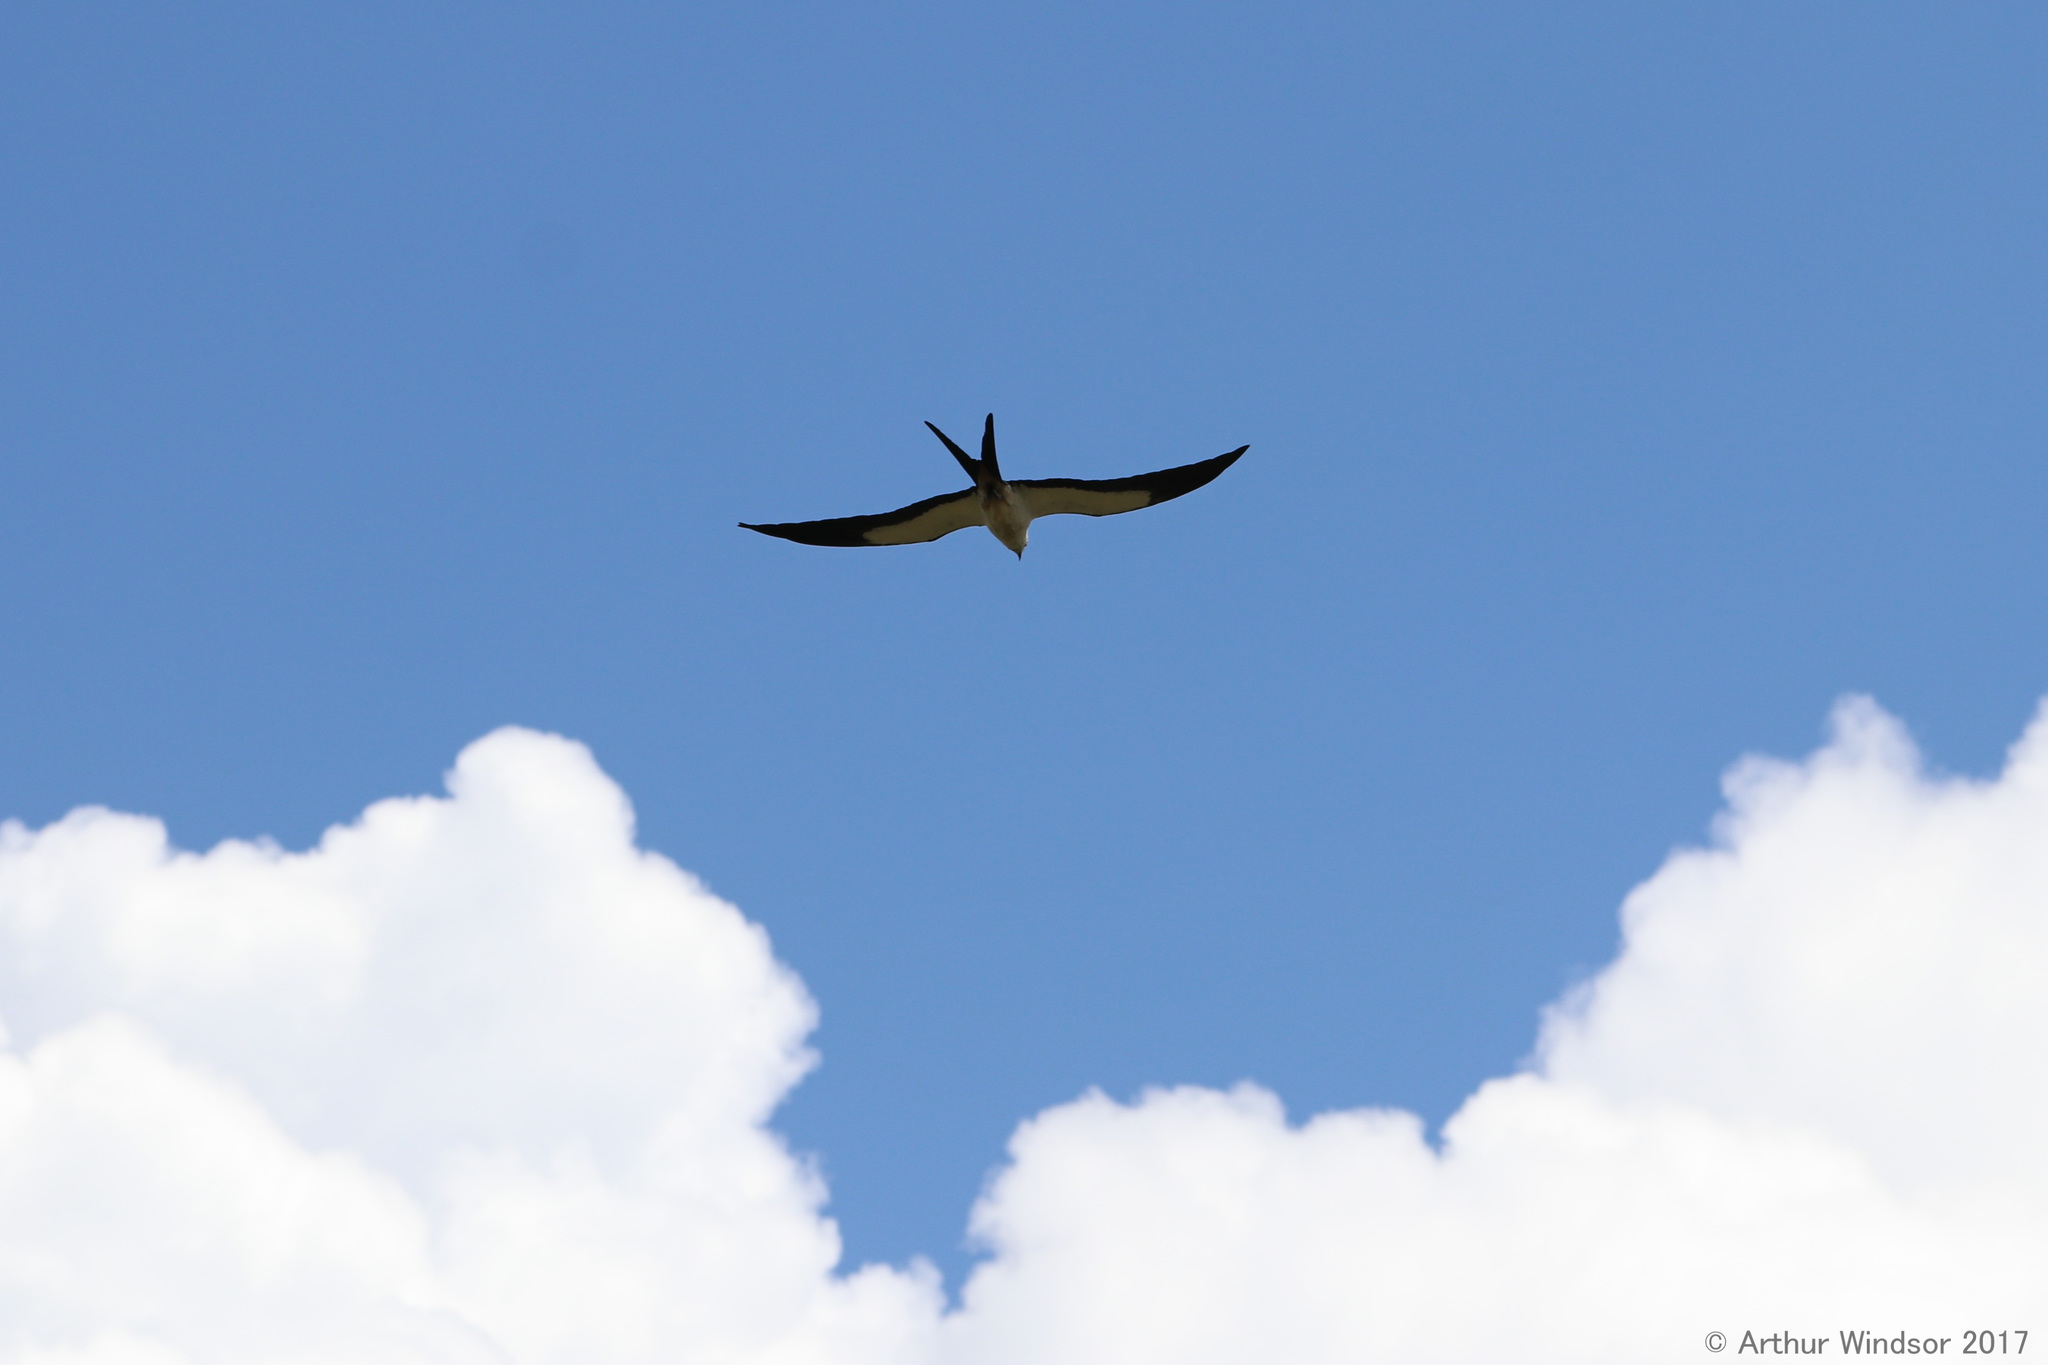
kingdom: Animalia
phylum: Chordata
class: Aves
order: Accipitriformes
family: Accipitridae
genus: Elanoides
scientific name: Elanoides forficatus
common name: Swallow-tailed kite
